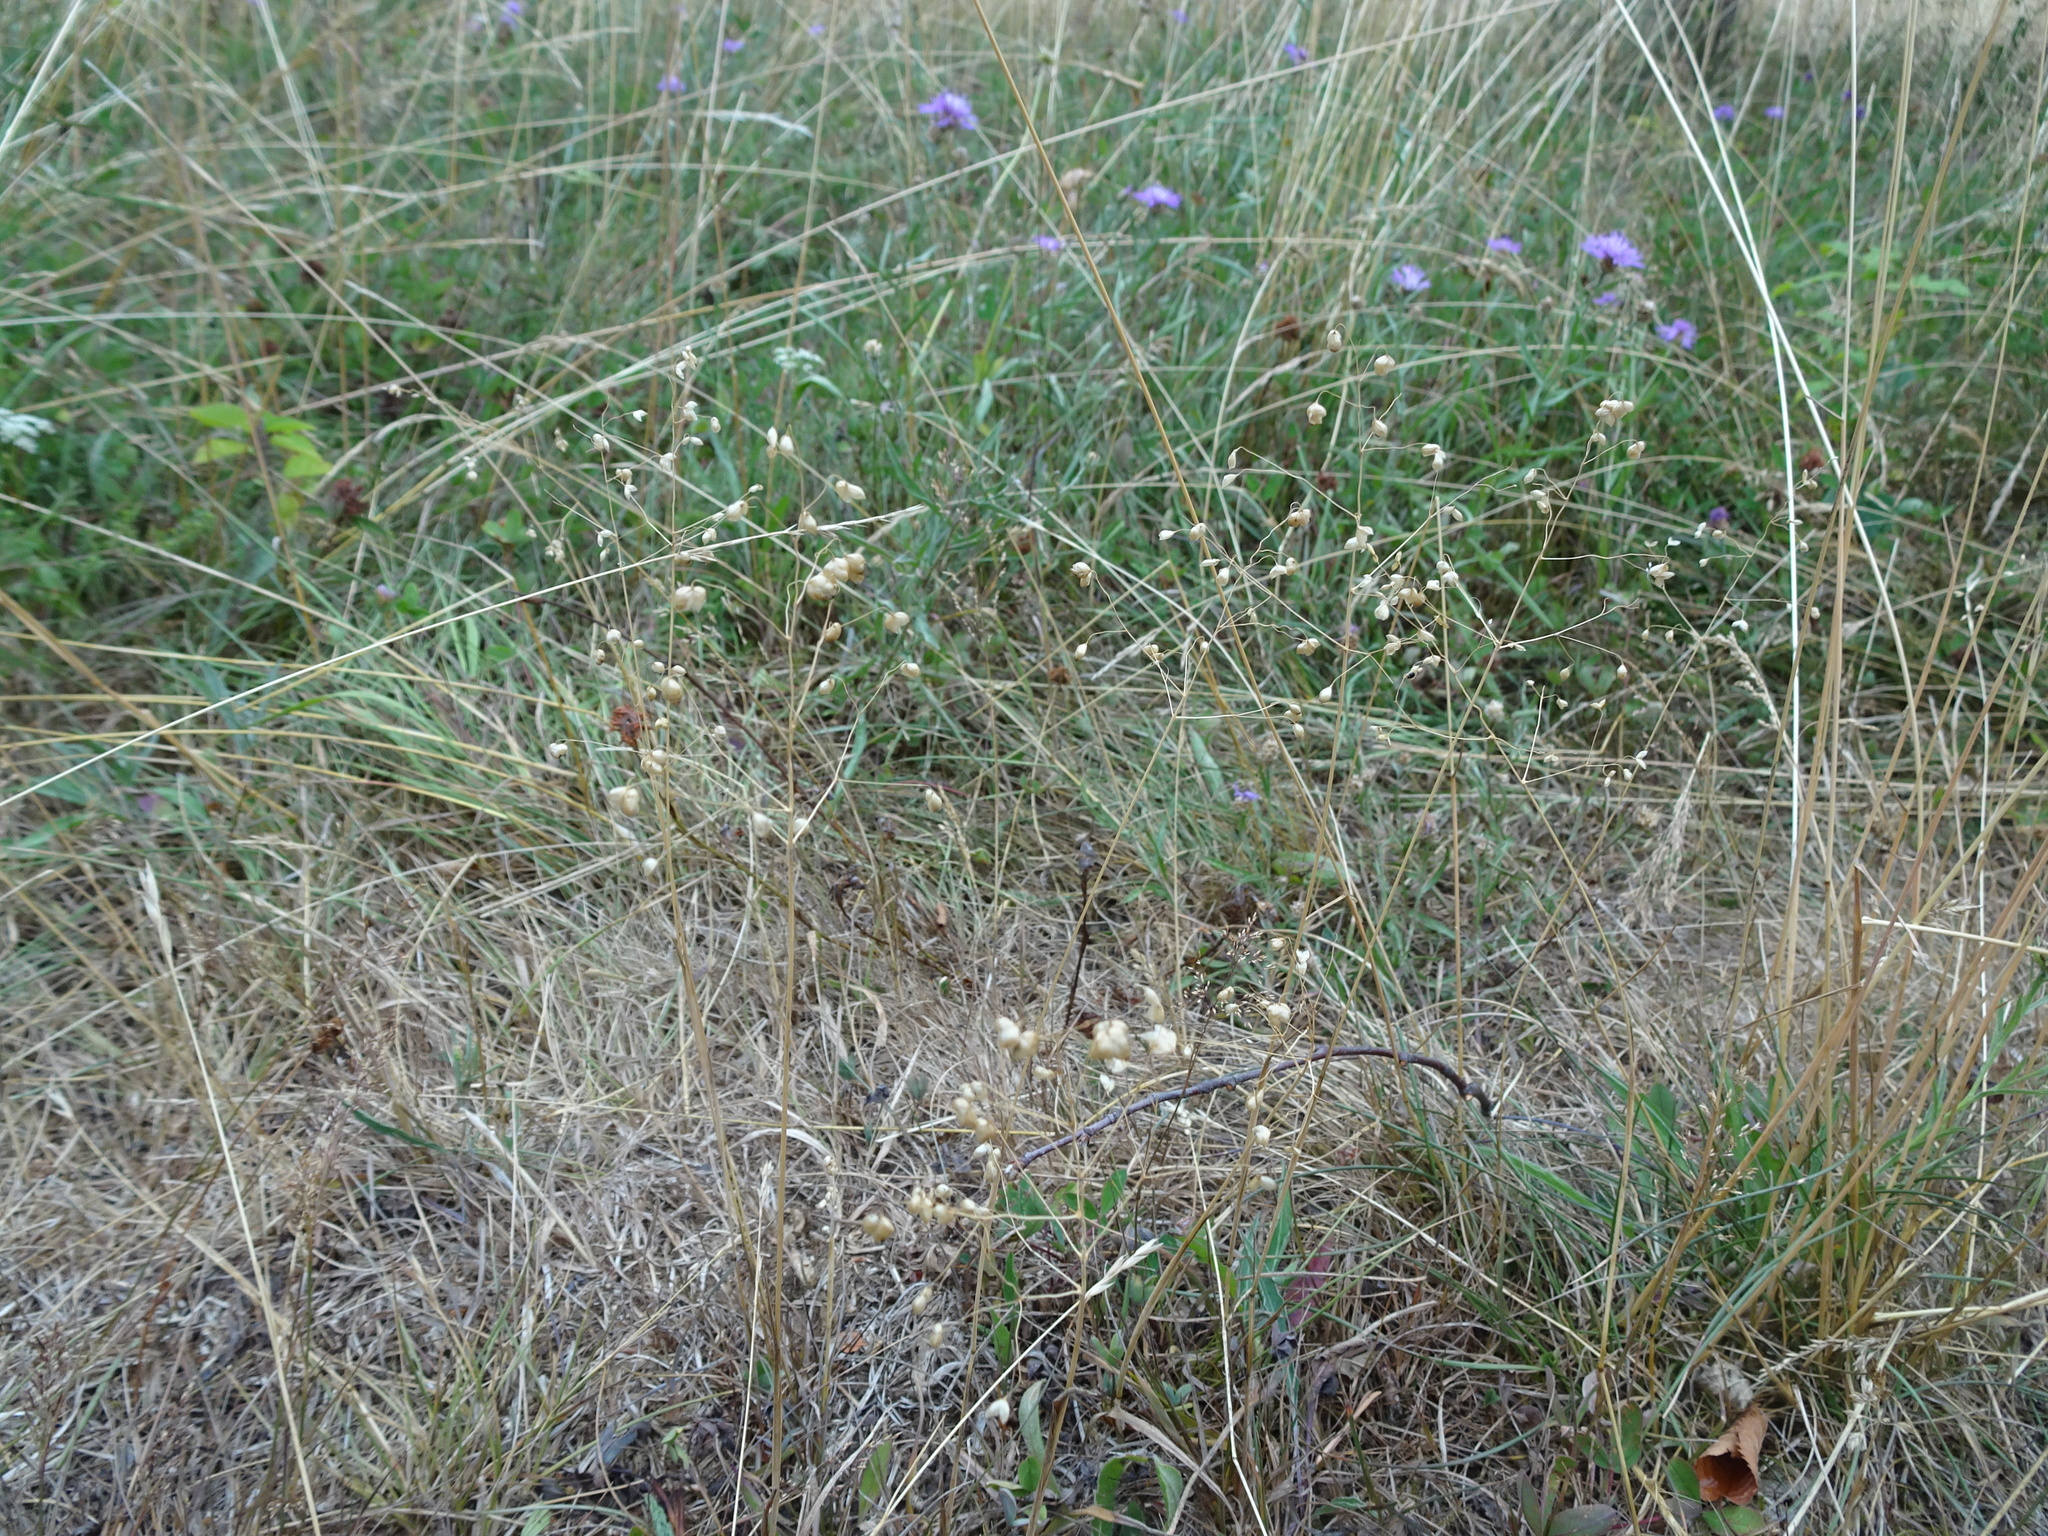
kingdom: Plantae
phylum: Tracheophyta
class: Liliopsida
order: Poales
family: Poaceae
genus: Briza
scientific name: Briza media
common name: Quaking grass
